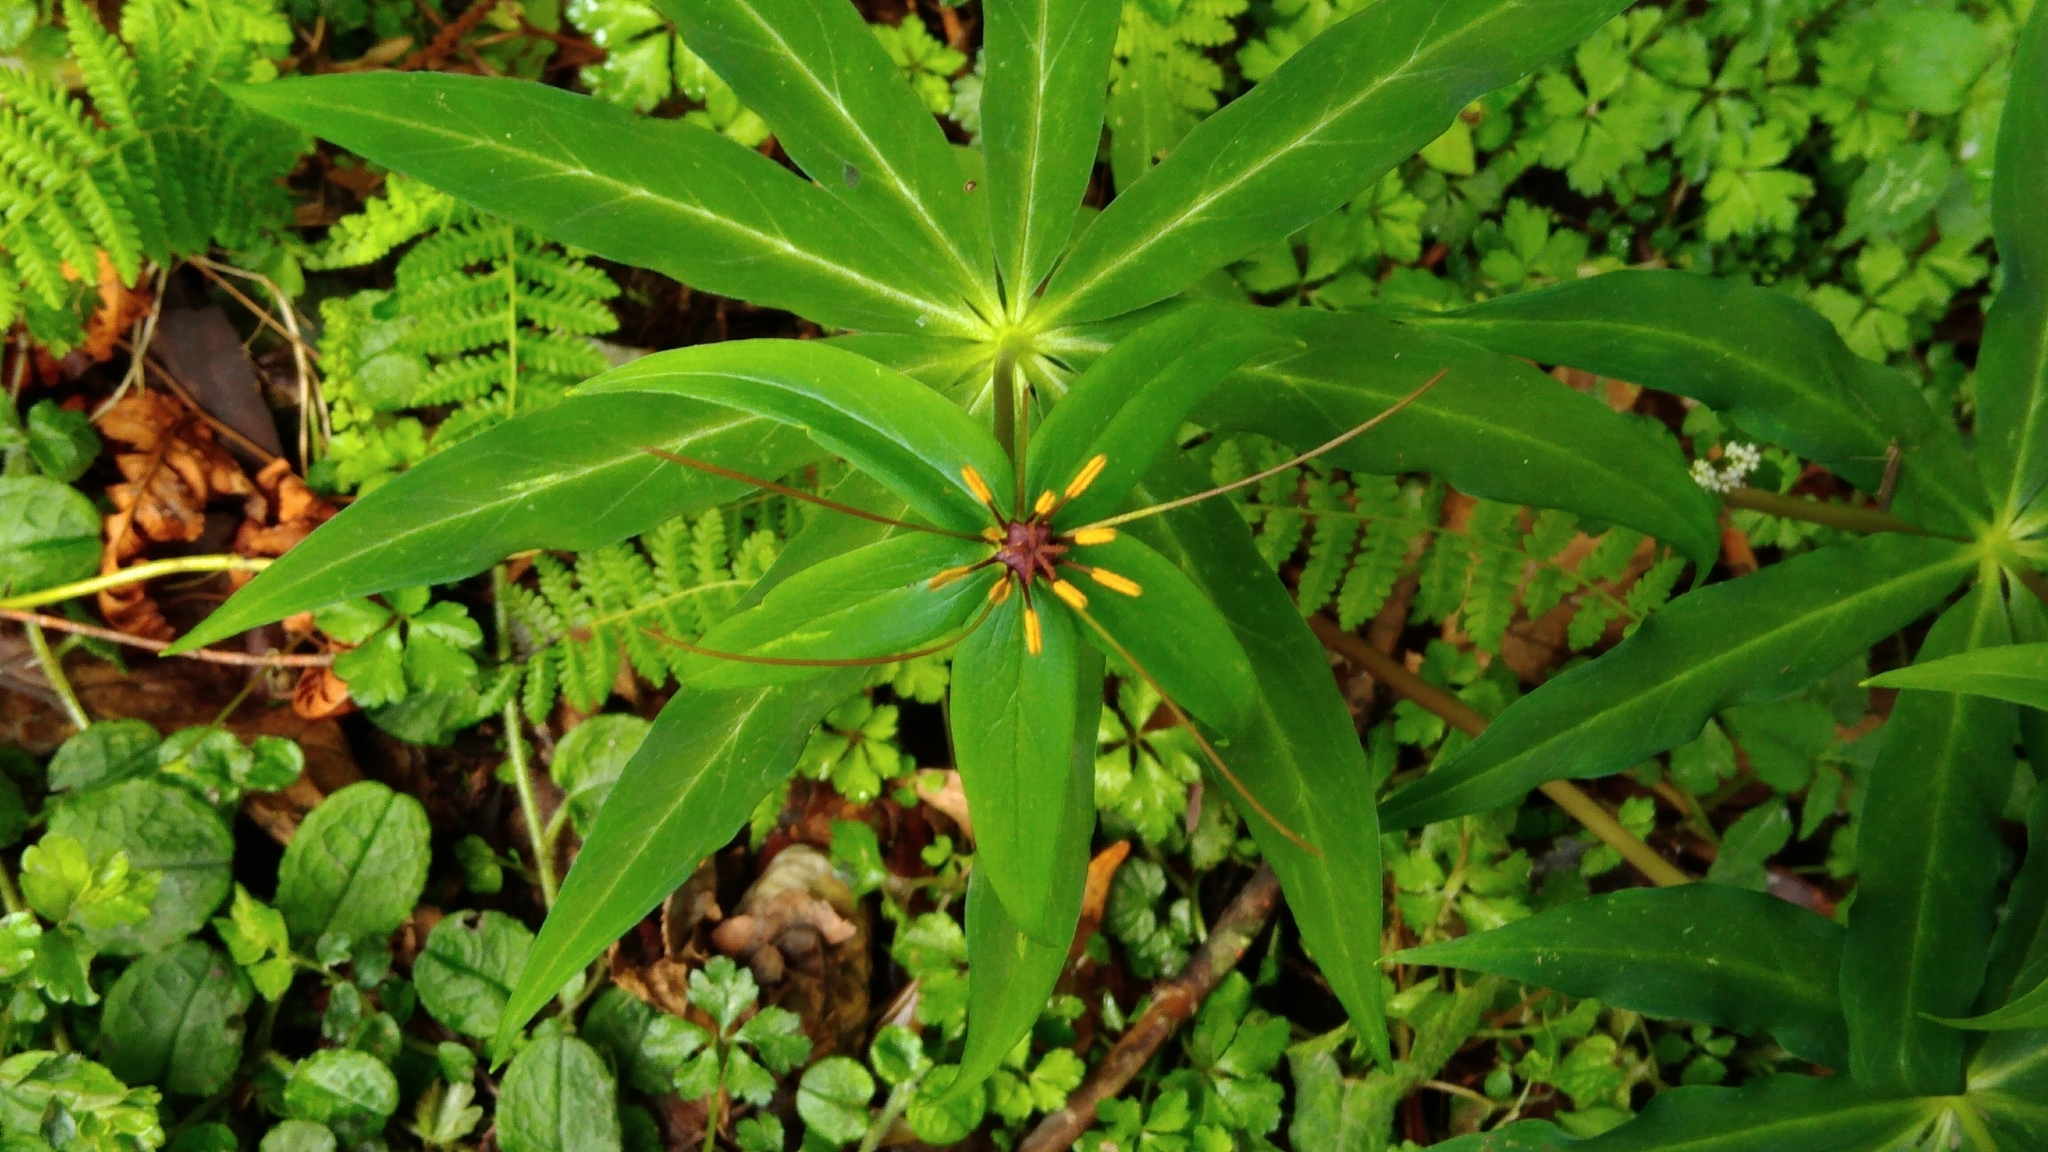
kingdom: Plantae
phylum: Tracheophyta
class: Liliopsida
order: Liliales
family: Melanthiaceae
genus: Paris
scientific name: Paris lancifolia
